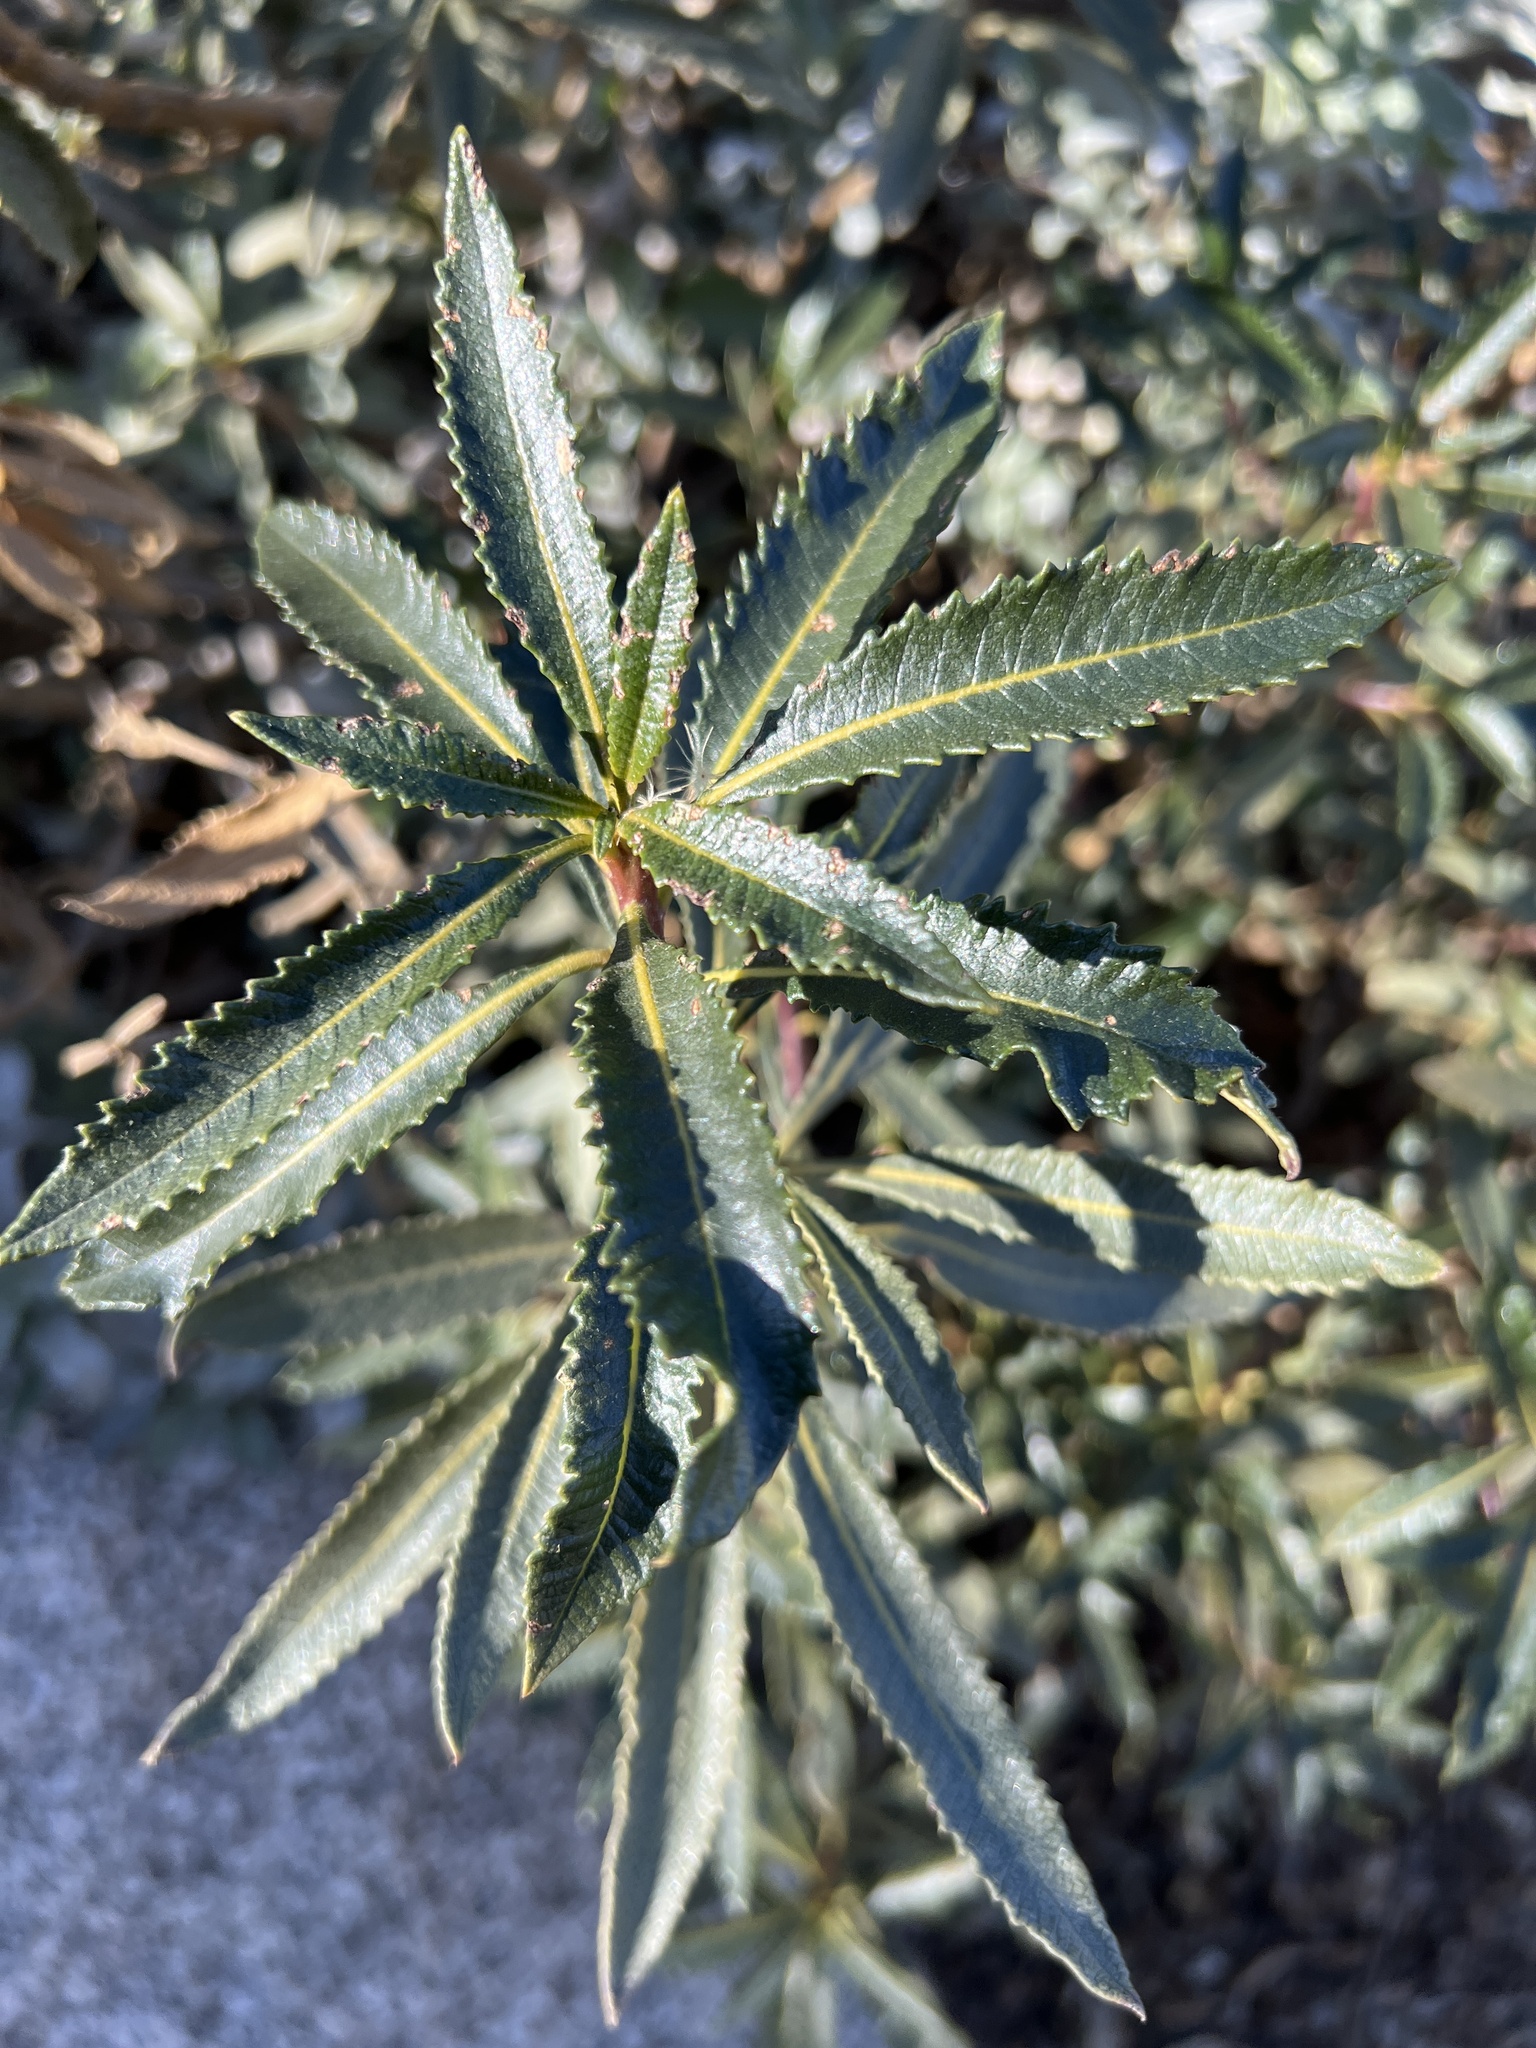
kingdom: Plantae
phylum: Tracheophyta
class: Magnoliopsida
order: Boraginales
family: Namaceae
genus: Eriodictyon
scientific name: Eriodictyon trichocalyx
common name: Hairy yerba-santa
